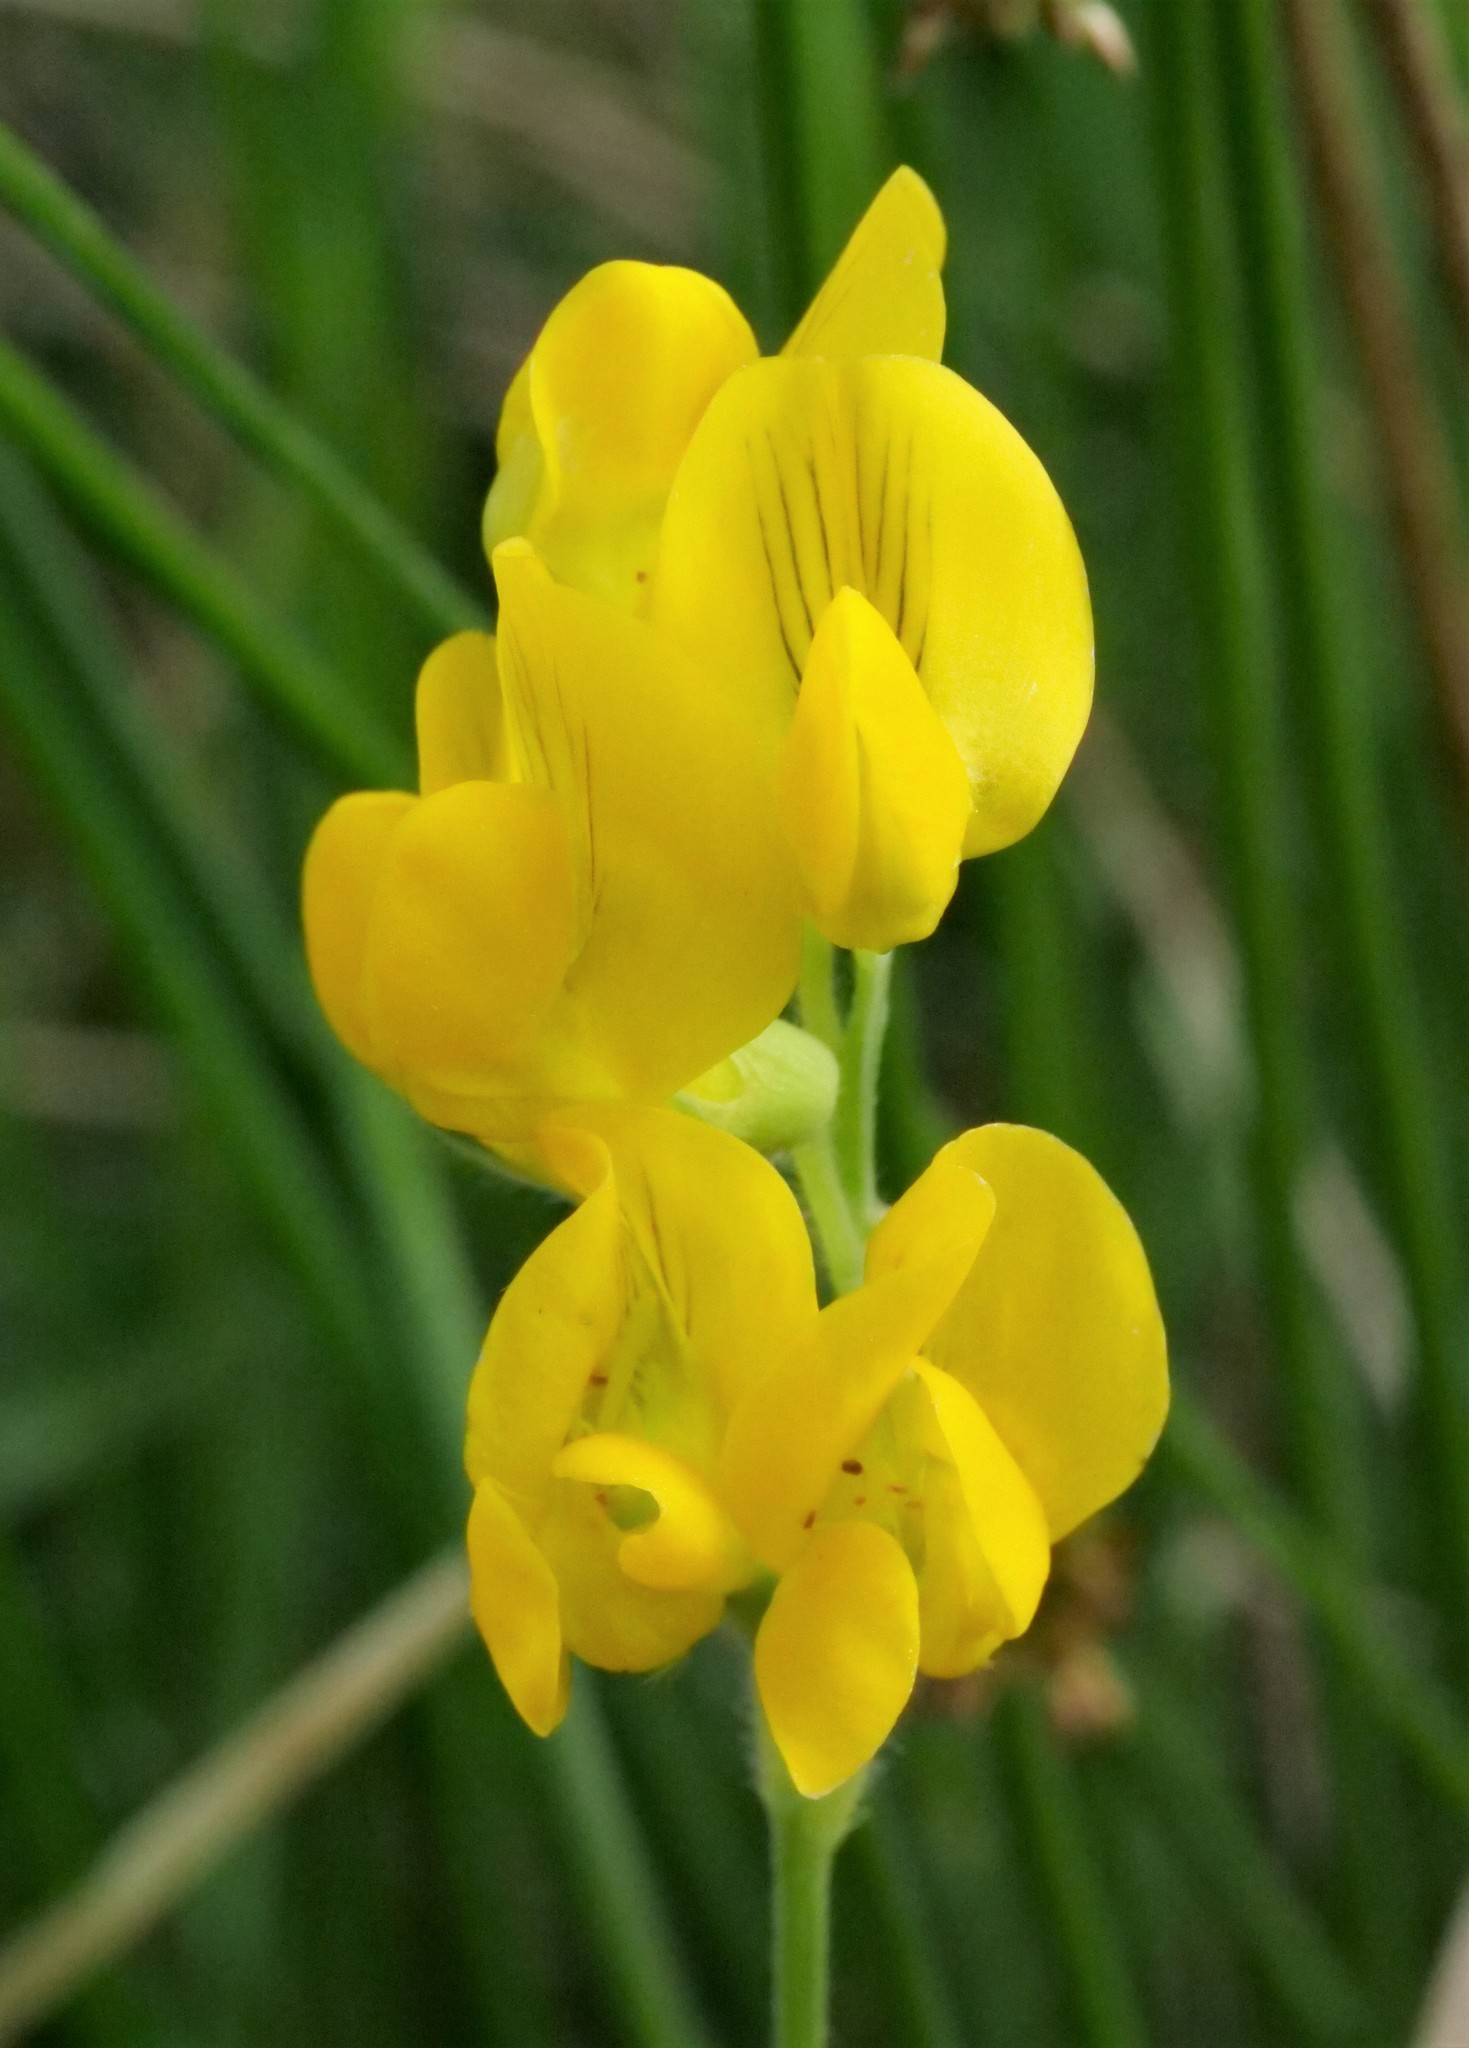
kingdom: Plantae
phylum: Tracheophyta
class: Magnoliopsida
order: Fabales
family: Fabaceae
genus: Lathyrus
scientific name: Lathyrus pratensis
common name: Meadow vetchling
